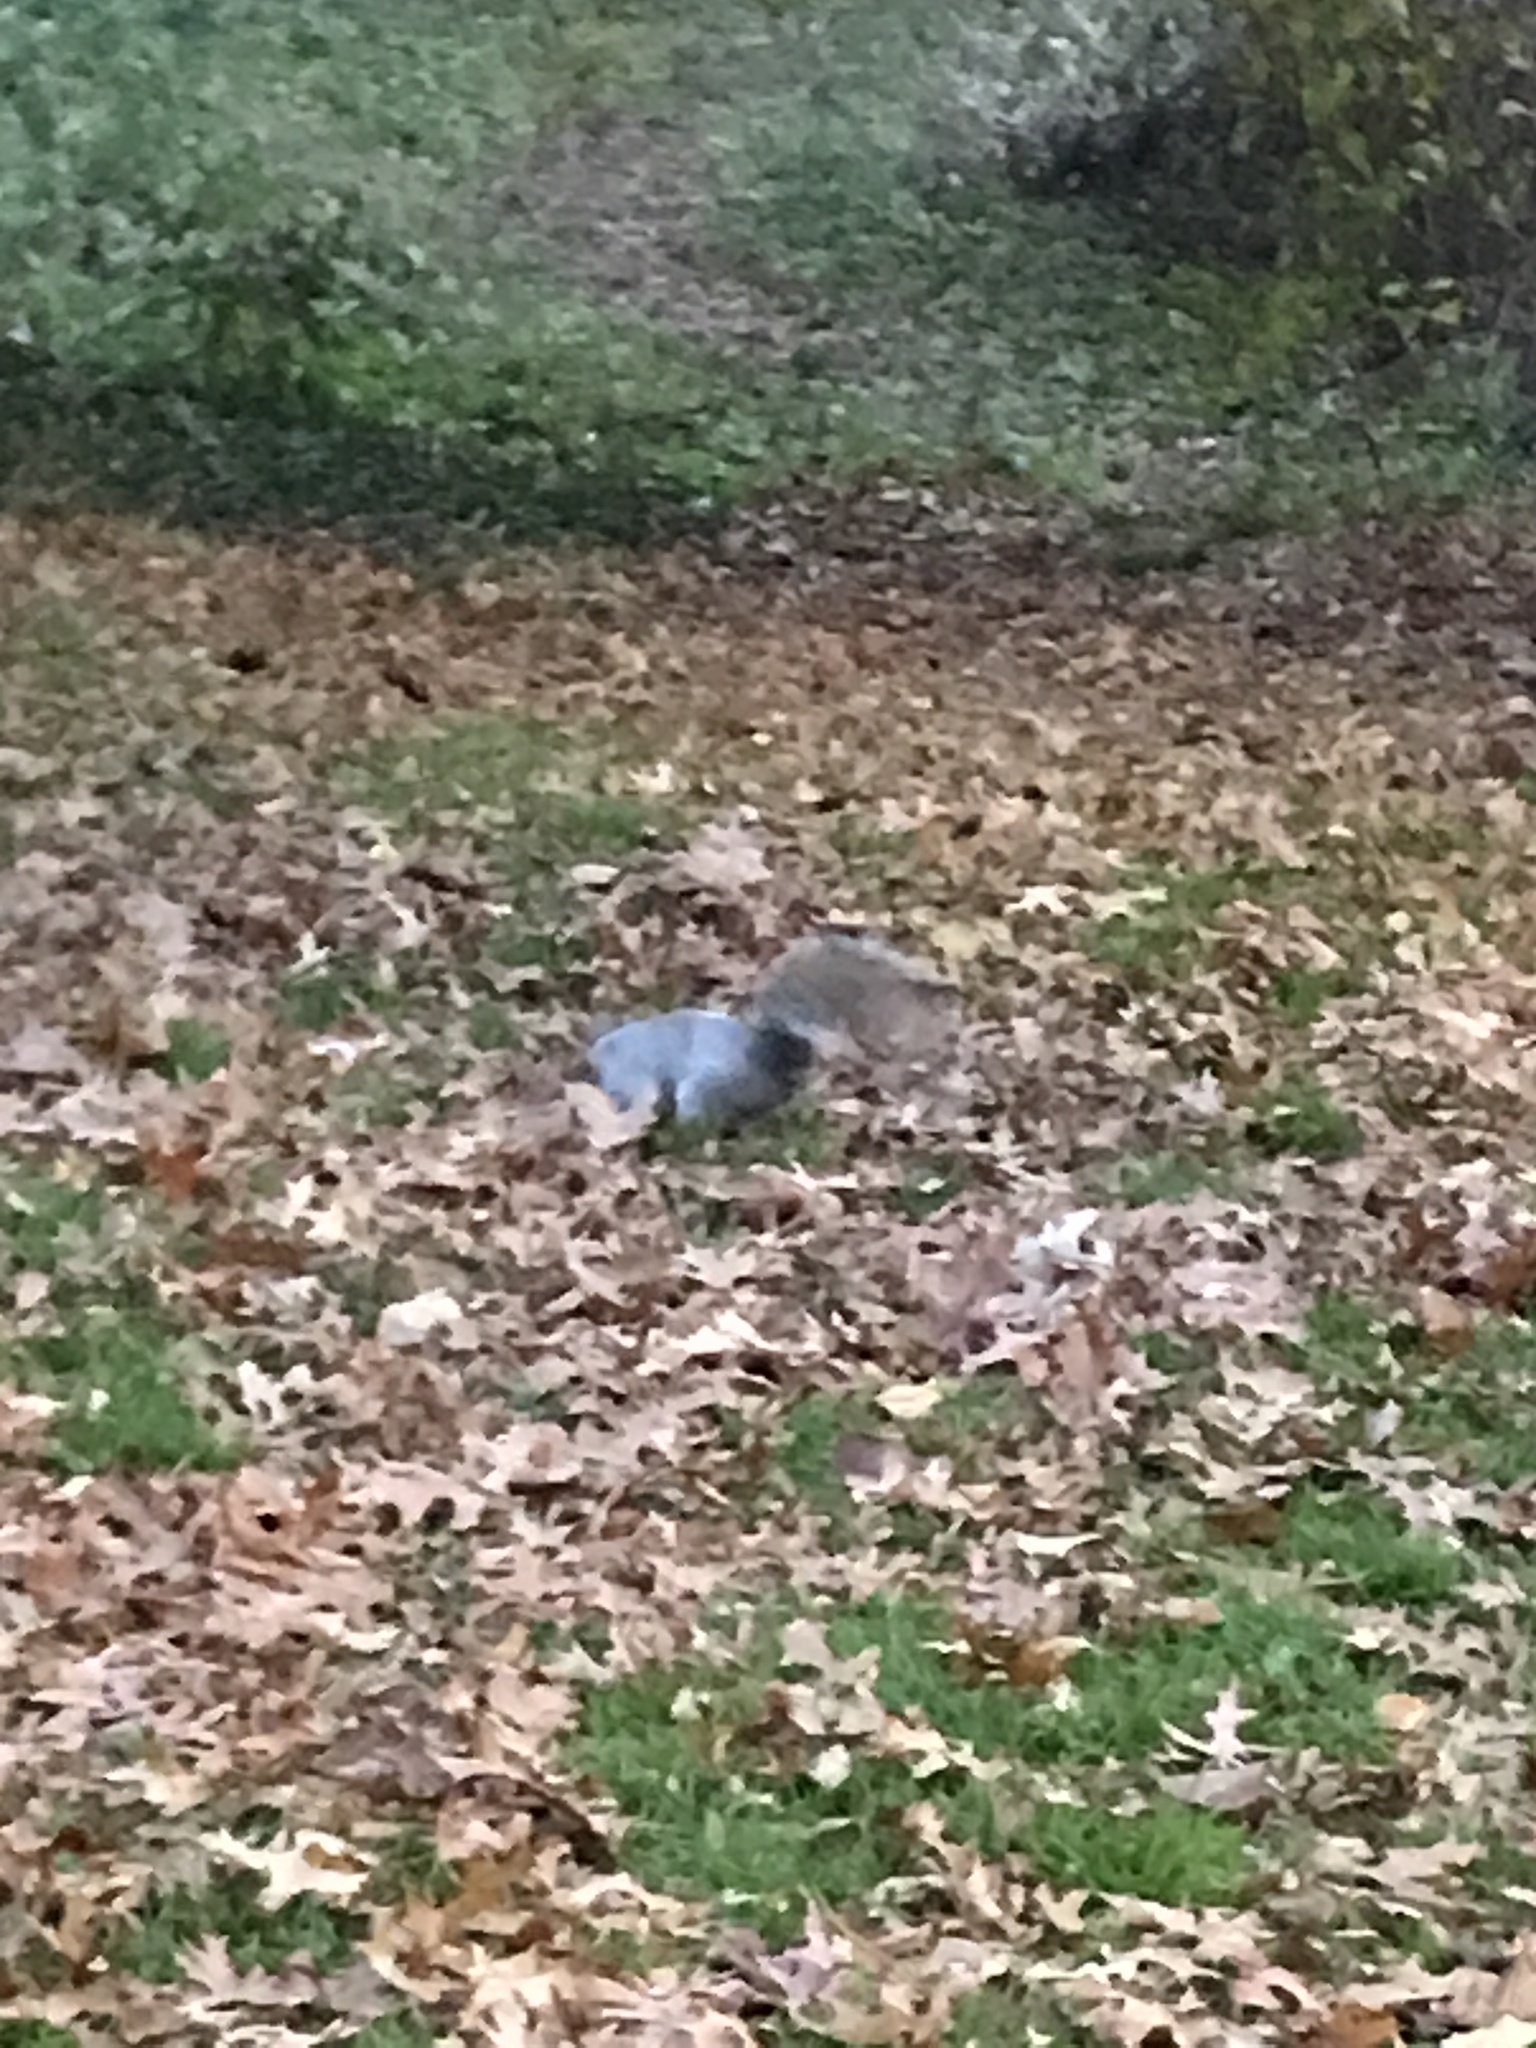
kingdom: Animalia
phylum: Chordata
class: Mammalia
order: Rodentia
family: Sciuridae
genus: Sciurus
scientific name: Sciurus carolinensis
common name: Eastern gray squirrel
